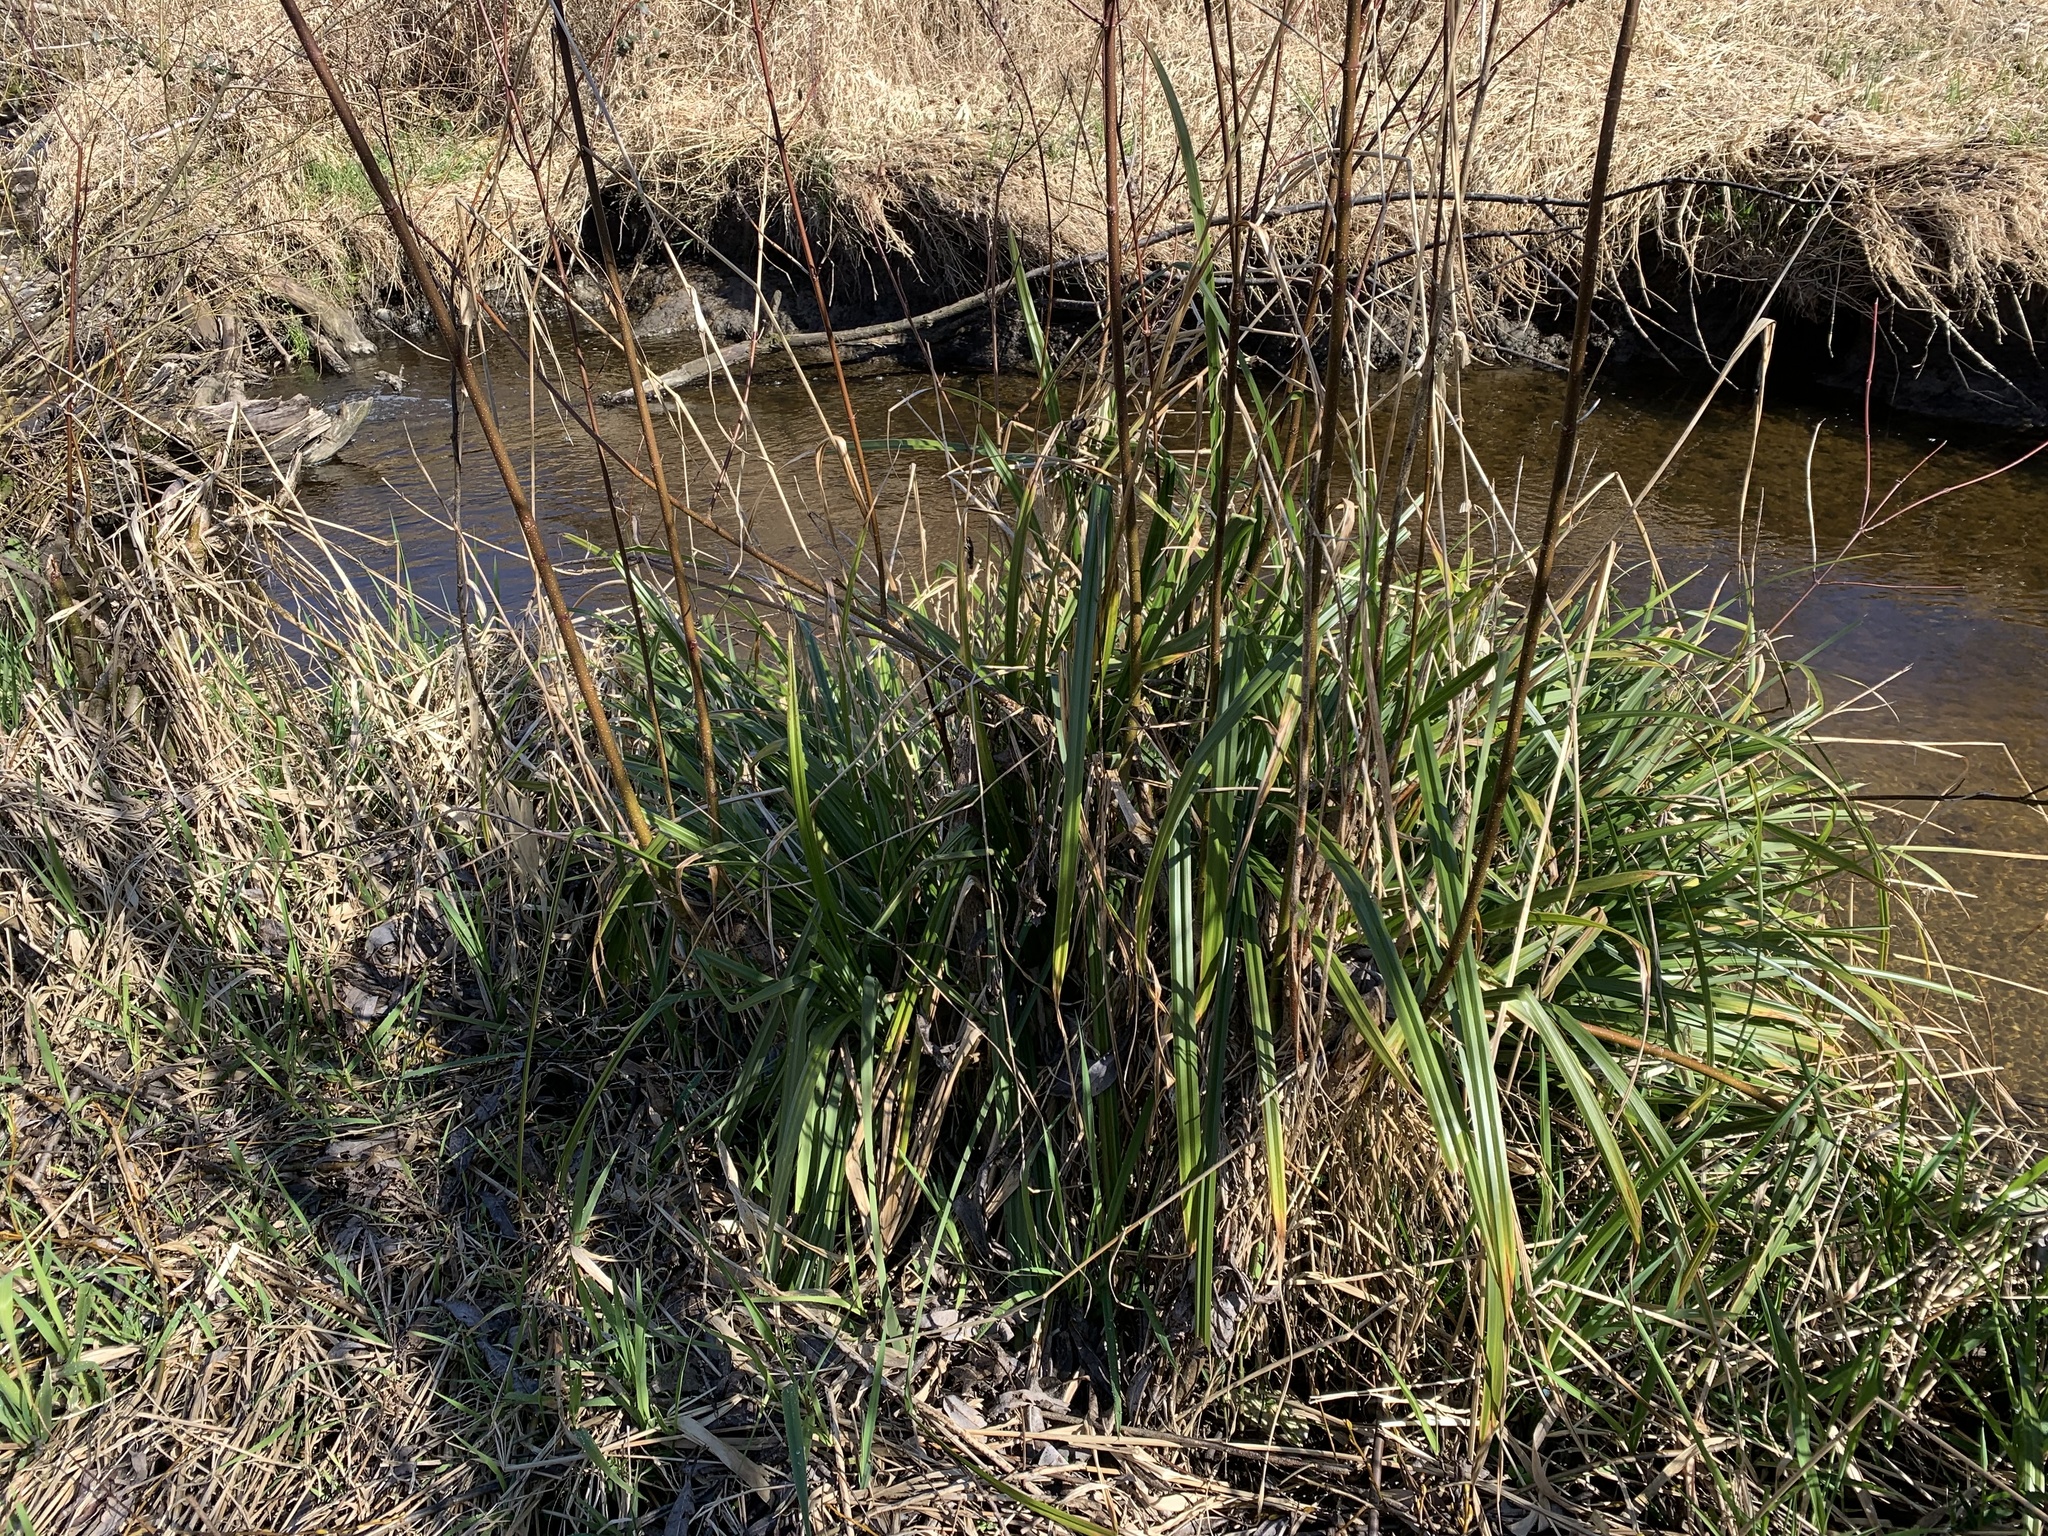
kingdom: Plantae
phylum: Tracheophyta
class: Liliopsida
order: Poales
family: Cyperaceae
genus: Carex
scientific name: Carex pendula
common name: Pendulous sedge
